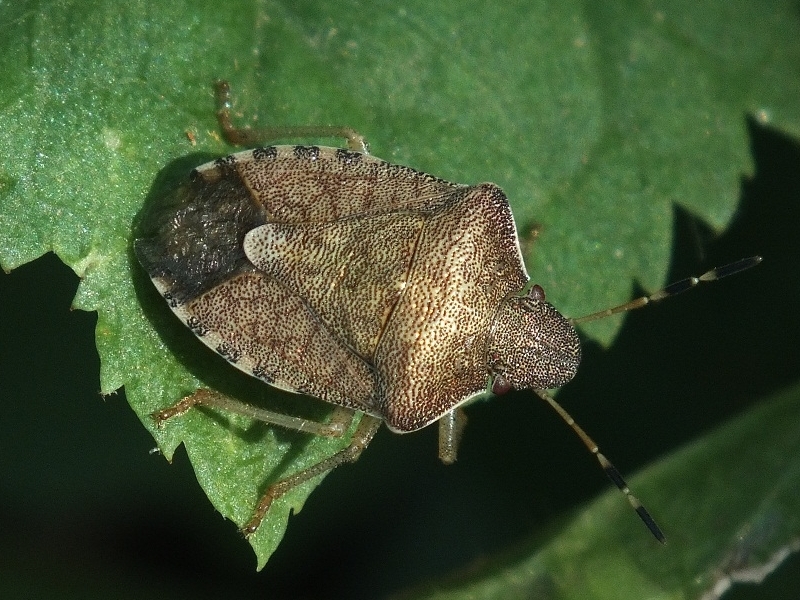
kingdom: Animalia
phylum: Arthropoda
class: Insecta
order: Hemiptera
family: Pentatomidae
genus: Holcostethus
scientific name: Holcostethus strictus
